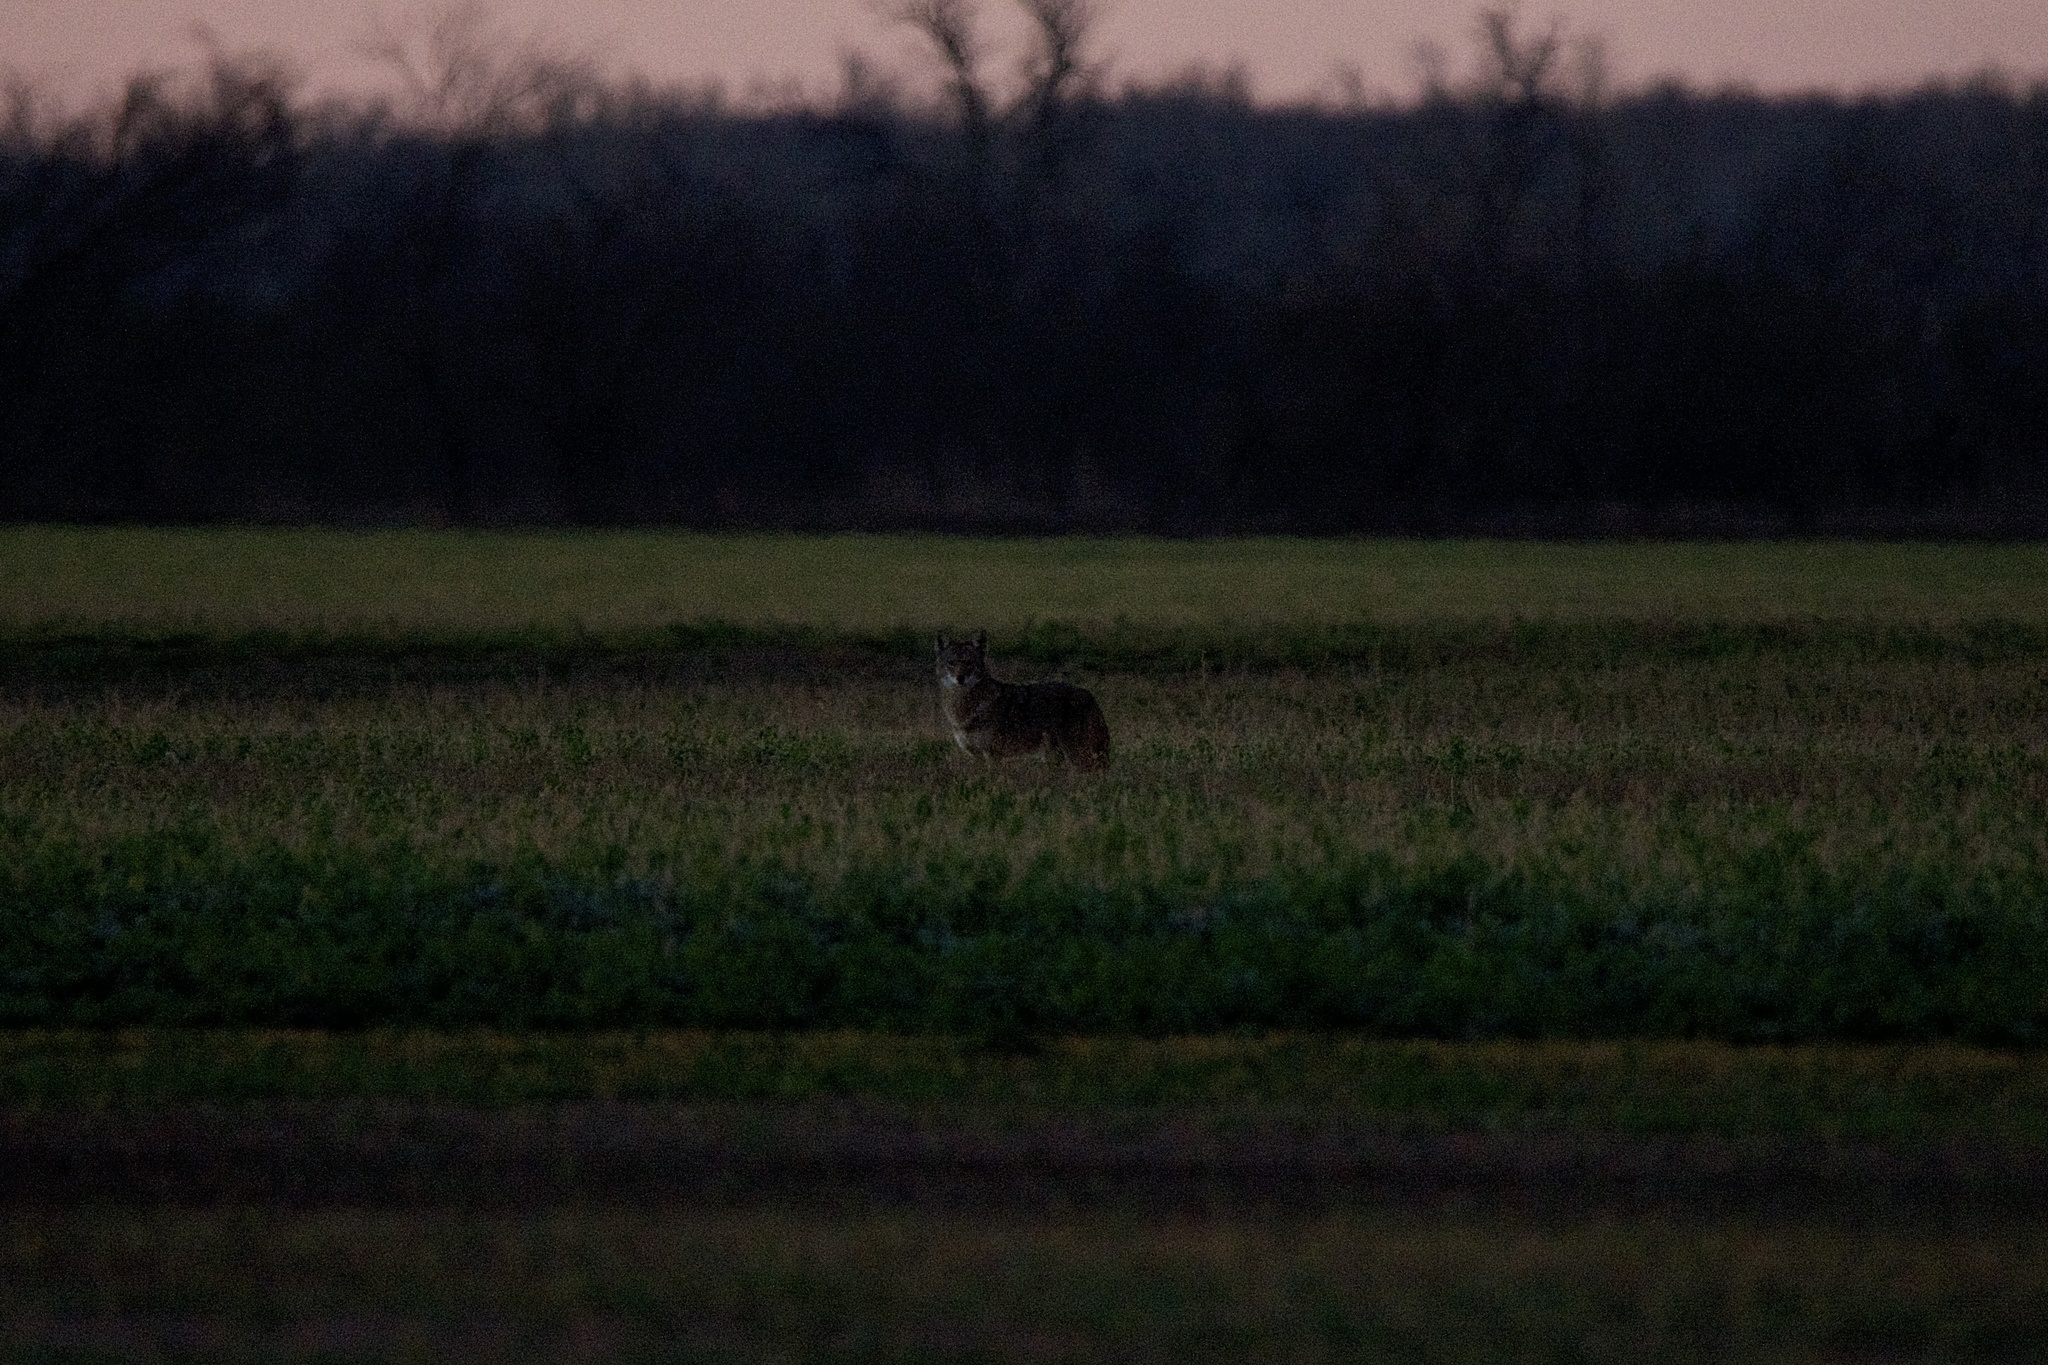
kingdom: Animalia
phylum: Chordata
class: Mammalia
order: Carnivora
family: Canidae
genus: Canis
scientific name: Canis latrans
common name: Coyote
